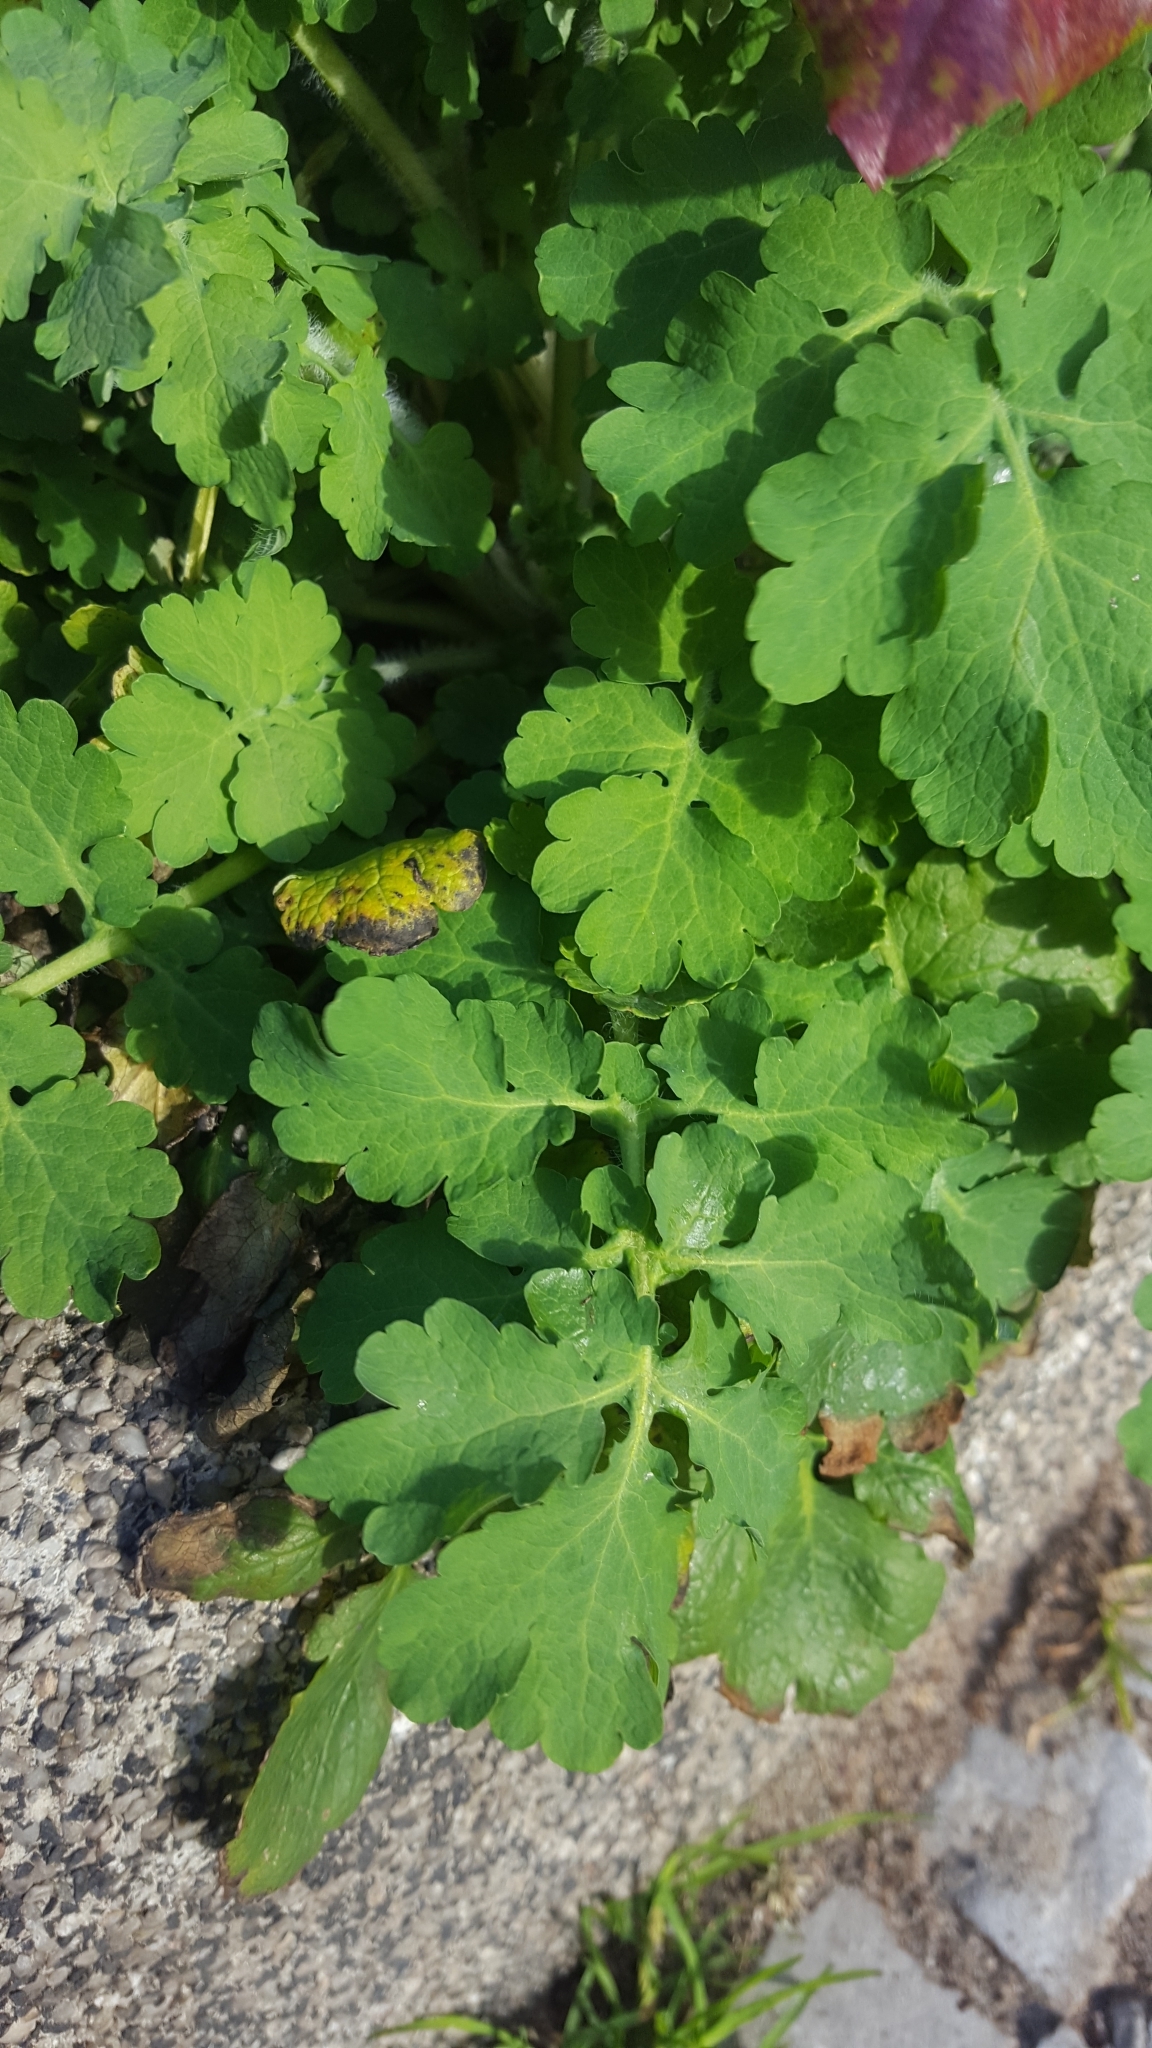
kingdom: Plantae
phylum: Tracheophyta
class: Magnoliopsida
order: Ranunculales
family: Papaveraceae
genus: Chelidonium
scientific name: Chelidonium majus
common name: Greater celandine
